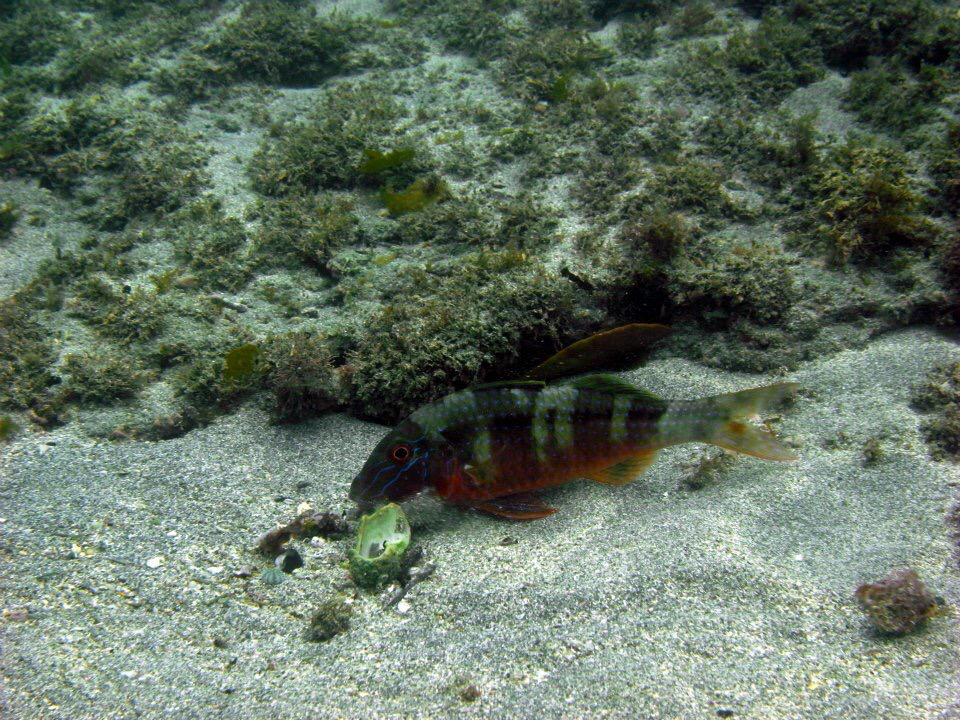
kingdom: Animalia
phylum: Chordata
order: Perciformes
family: Mullidae
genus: Upeneichthys
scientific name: Upeneichthys lineatus
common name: Red mullet
